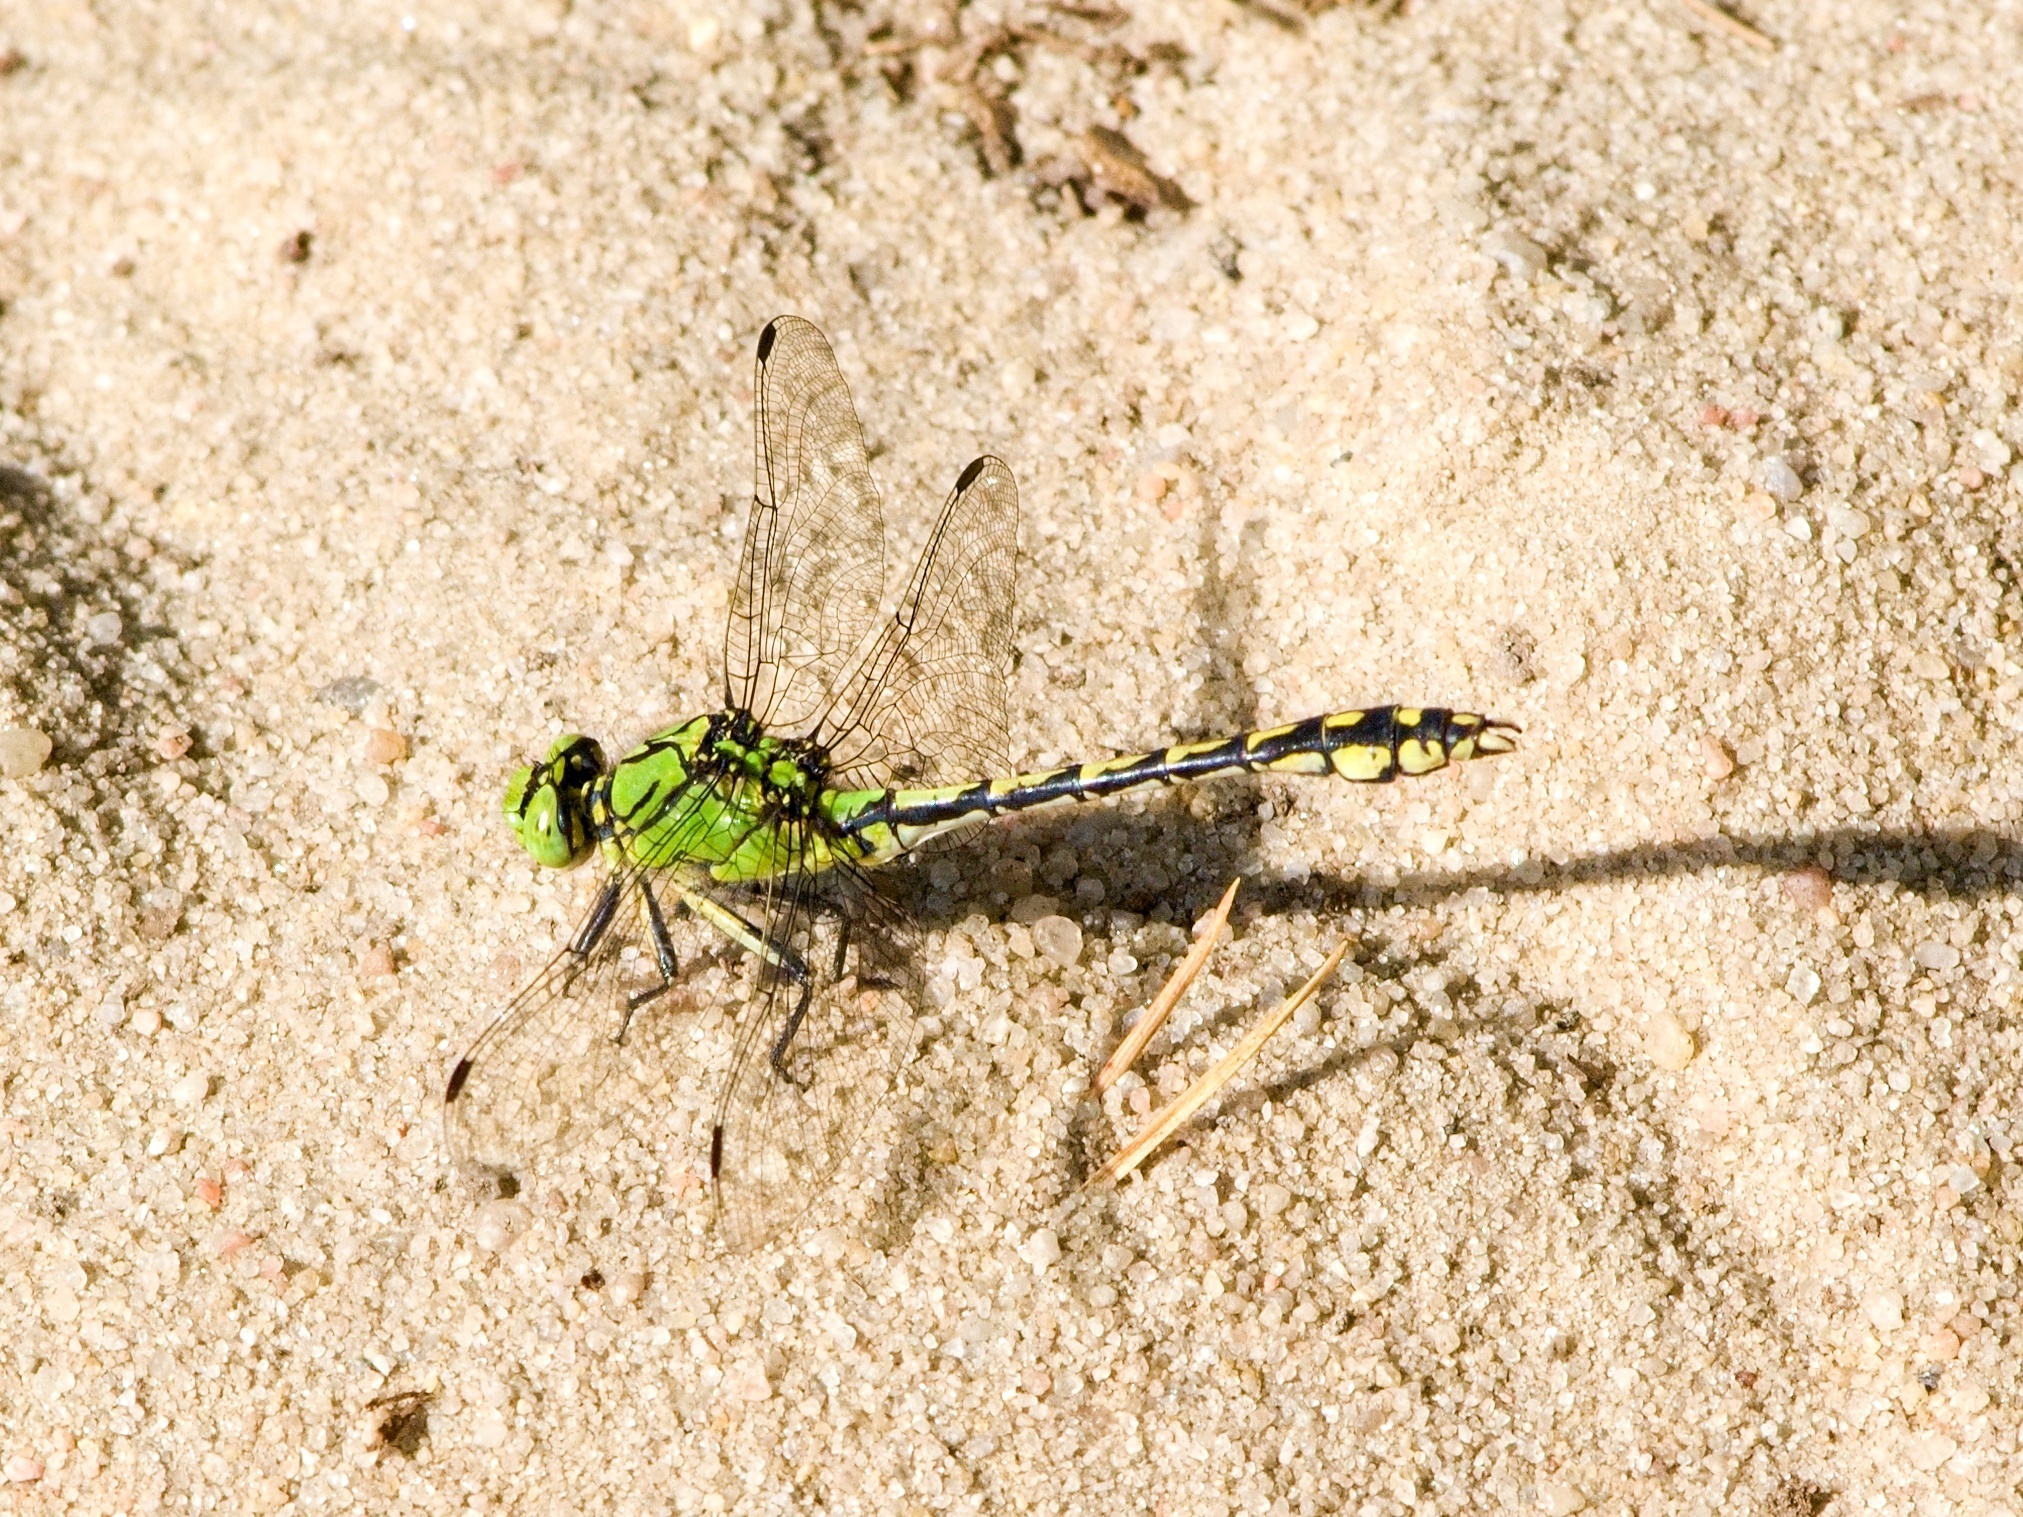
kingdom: Animalia
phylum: Arthropoda
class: Insecta
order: Odonata
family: Gomphidae
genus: Ophiogomphus
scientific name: Ophiogomphus cecilia
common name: Green snaketail
